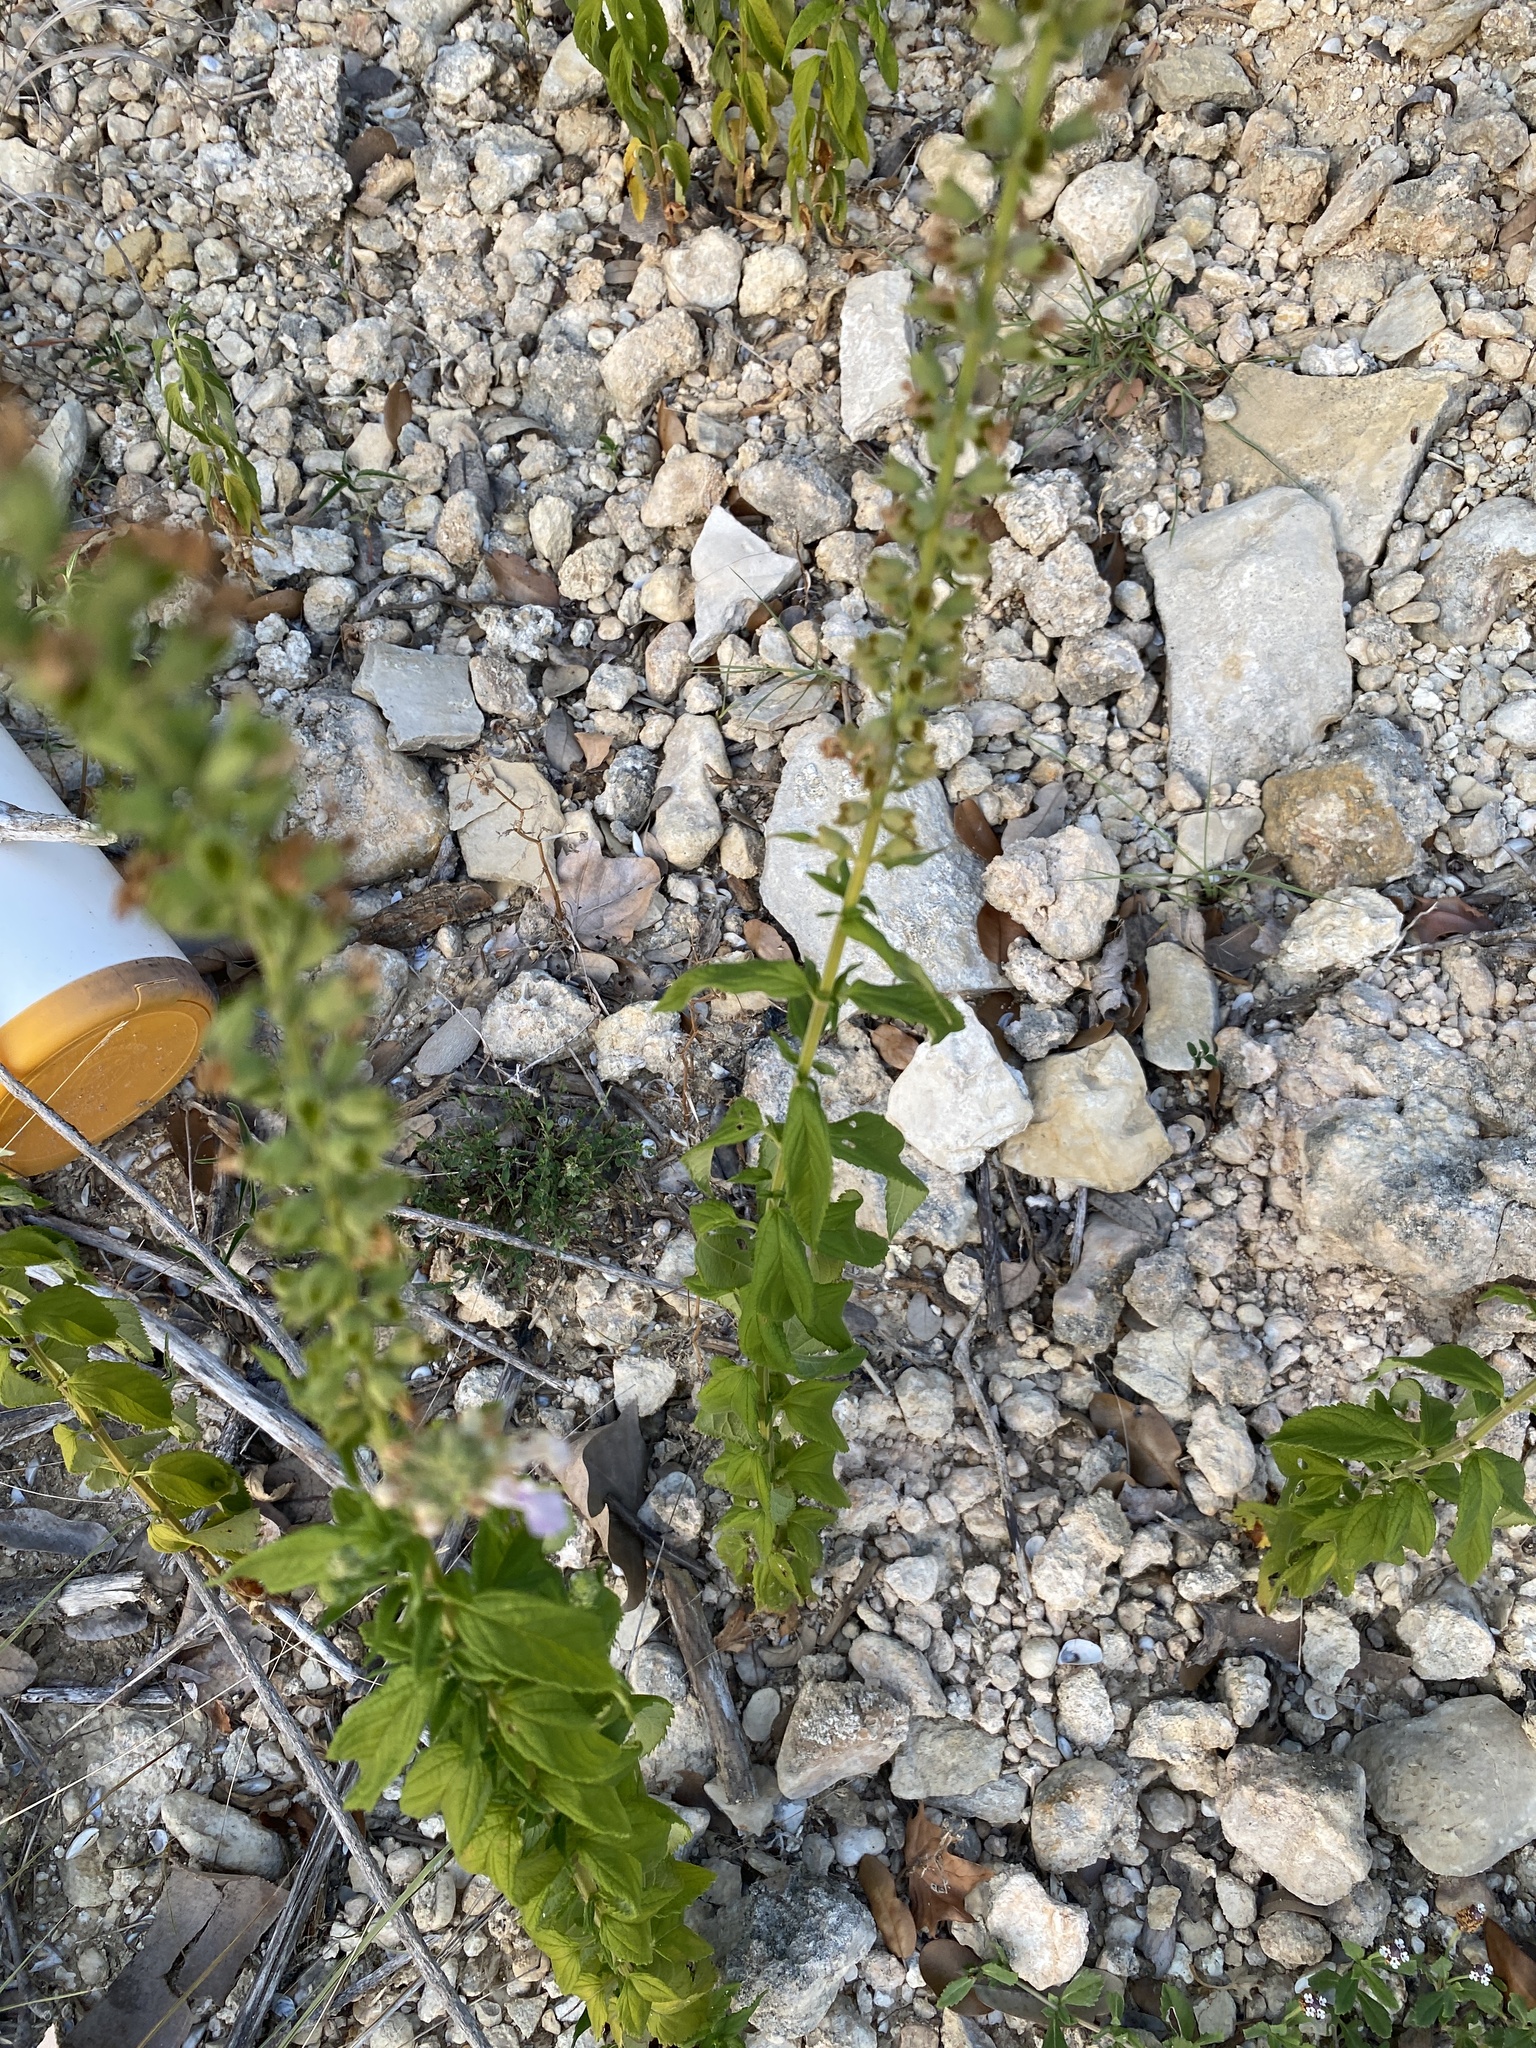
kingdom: Plantae
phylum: Tracheophyta
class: Magnoliopsida
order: Lamiales
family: Lamiaceae
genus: Teucrium
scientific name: Teucrium canadense
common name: American germander
